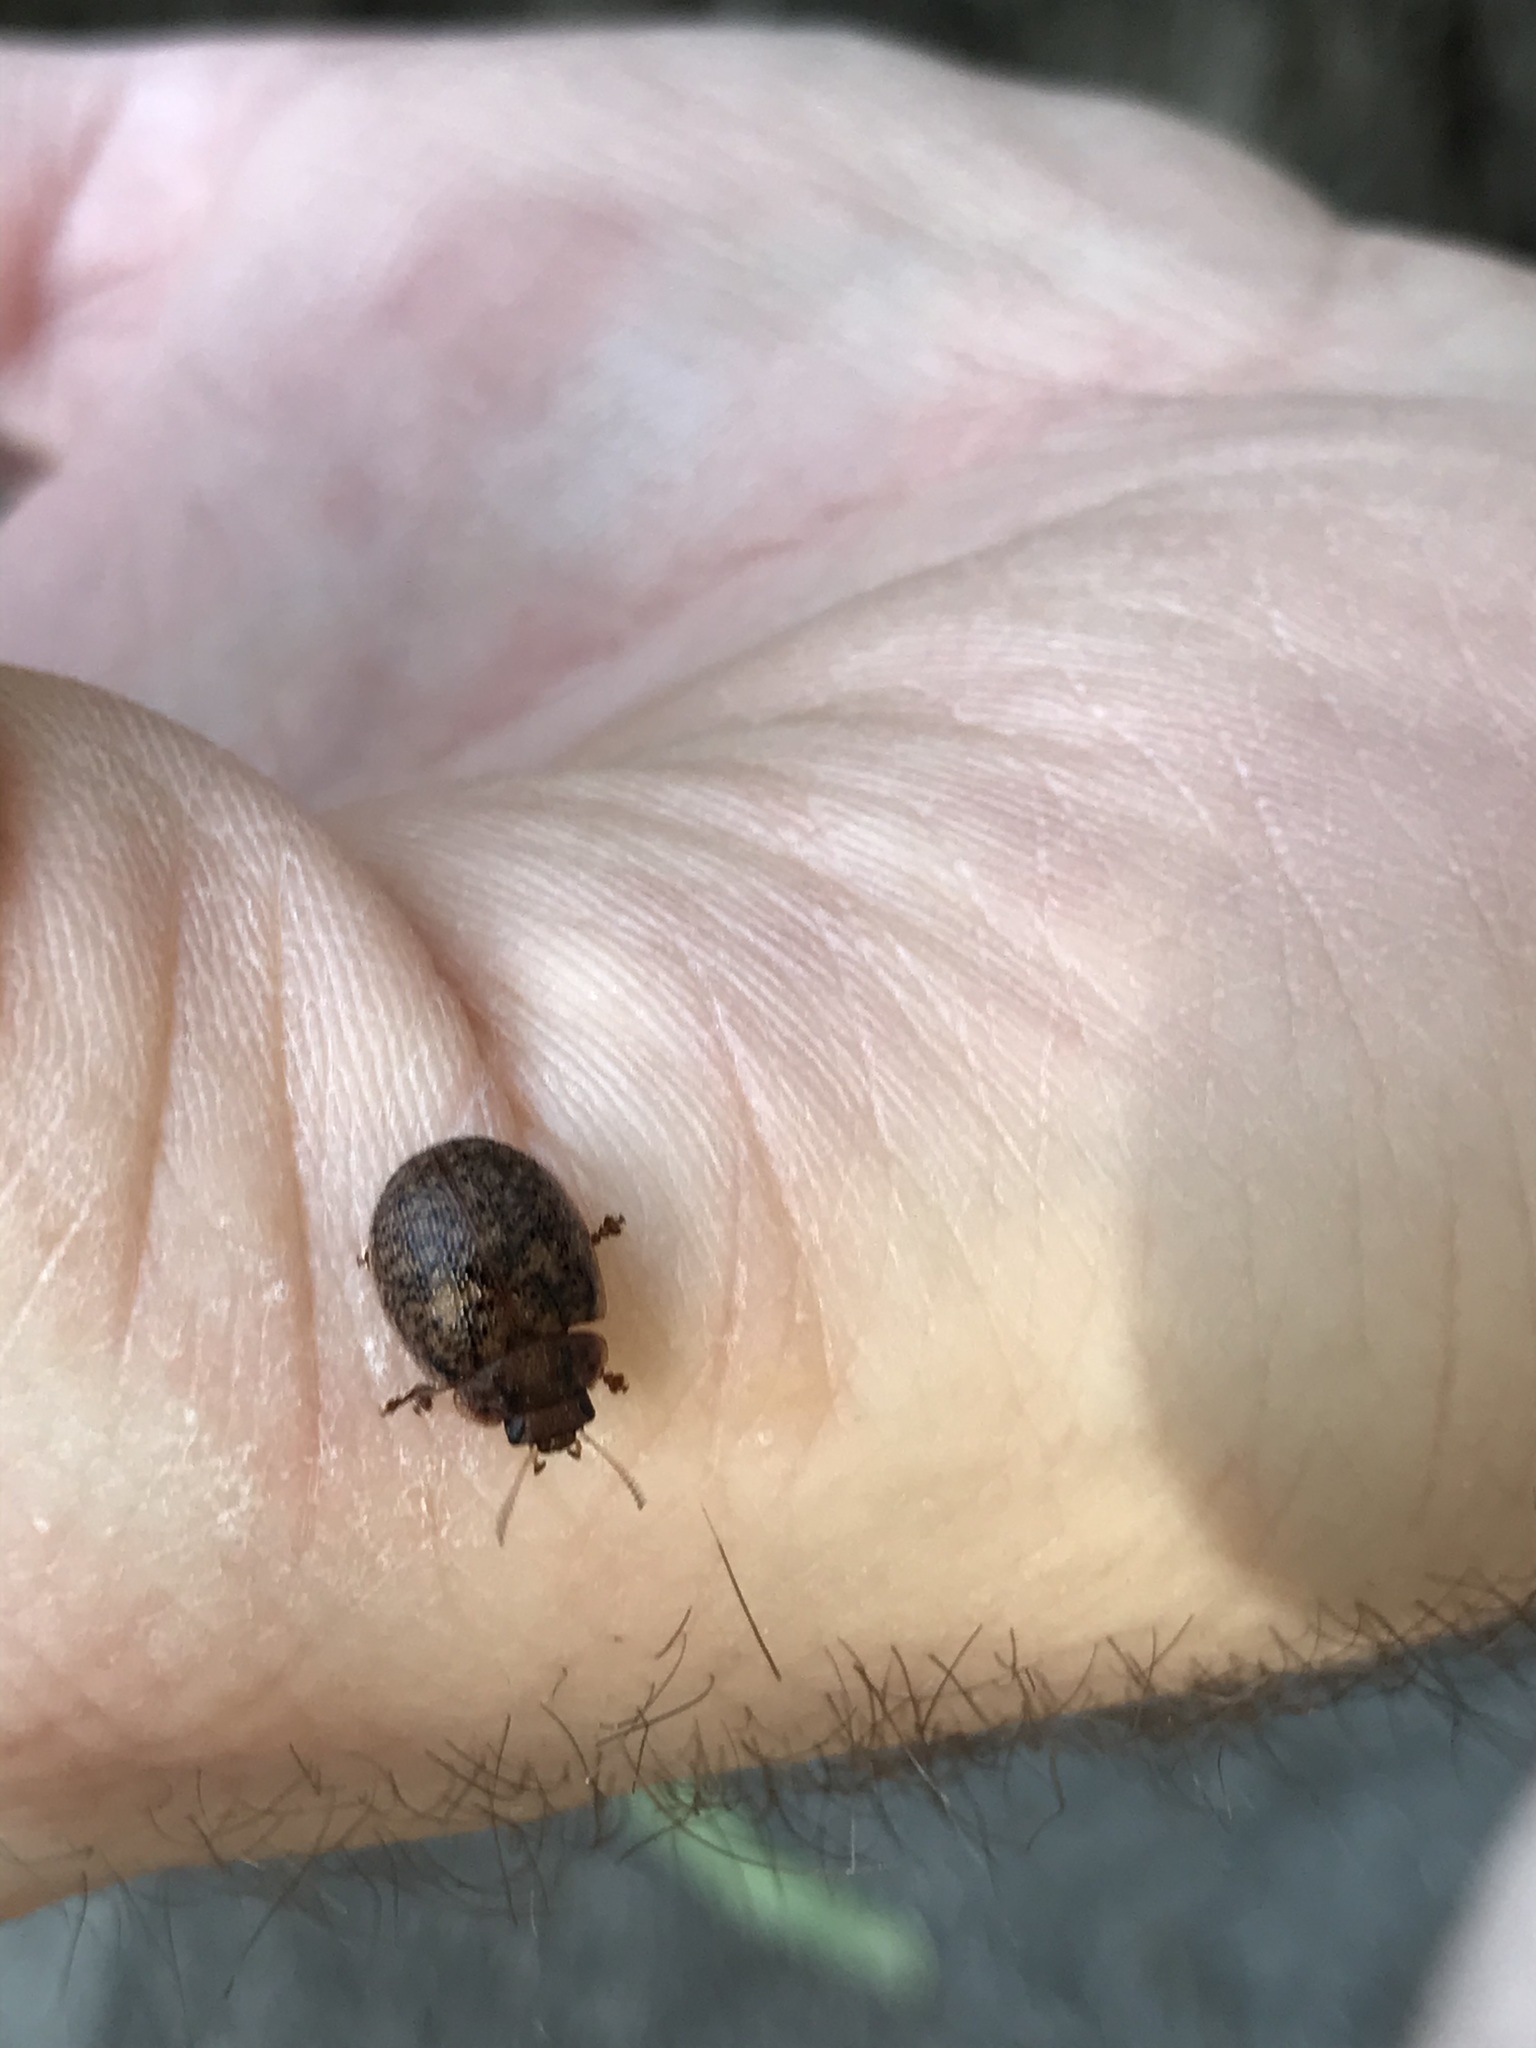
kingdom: Animalia
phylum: Arthropoda
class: Insecta
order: Coleoptera
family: Chrysomelidae
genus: Trachymela
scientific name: Trachymela sloanei
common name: Australian tortoise beetle
